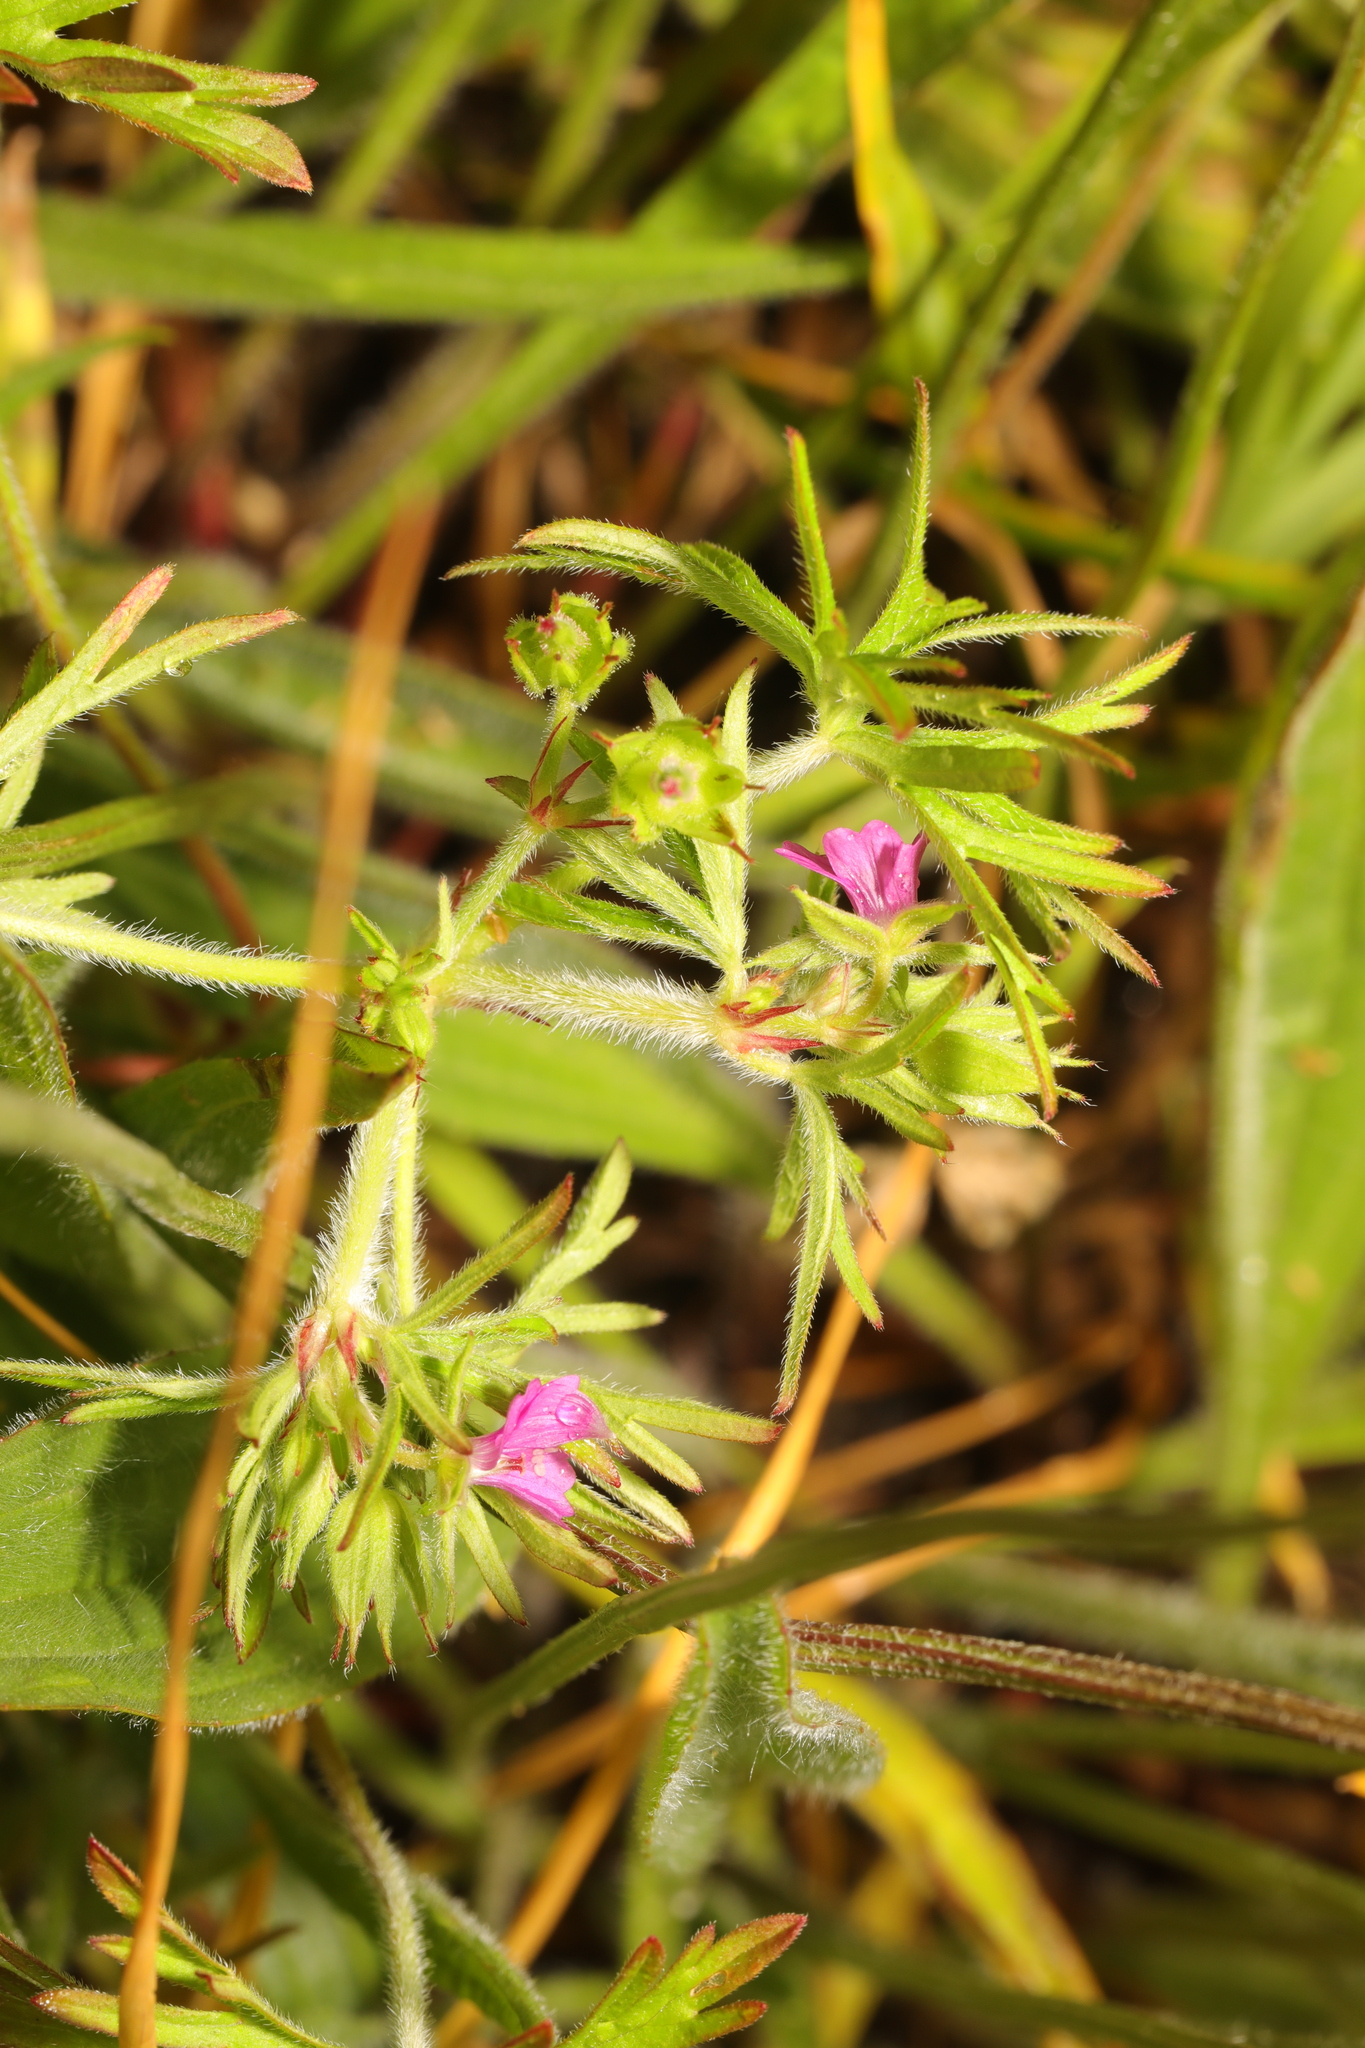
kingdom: Plantae
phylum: Tracheophyta
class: Magnoliopsida
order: Geraniales
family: Geraniaceae
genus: Geranium
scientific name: Geranium dissectum
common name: Cut-leaved crane's-bill
